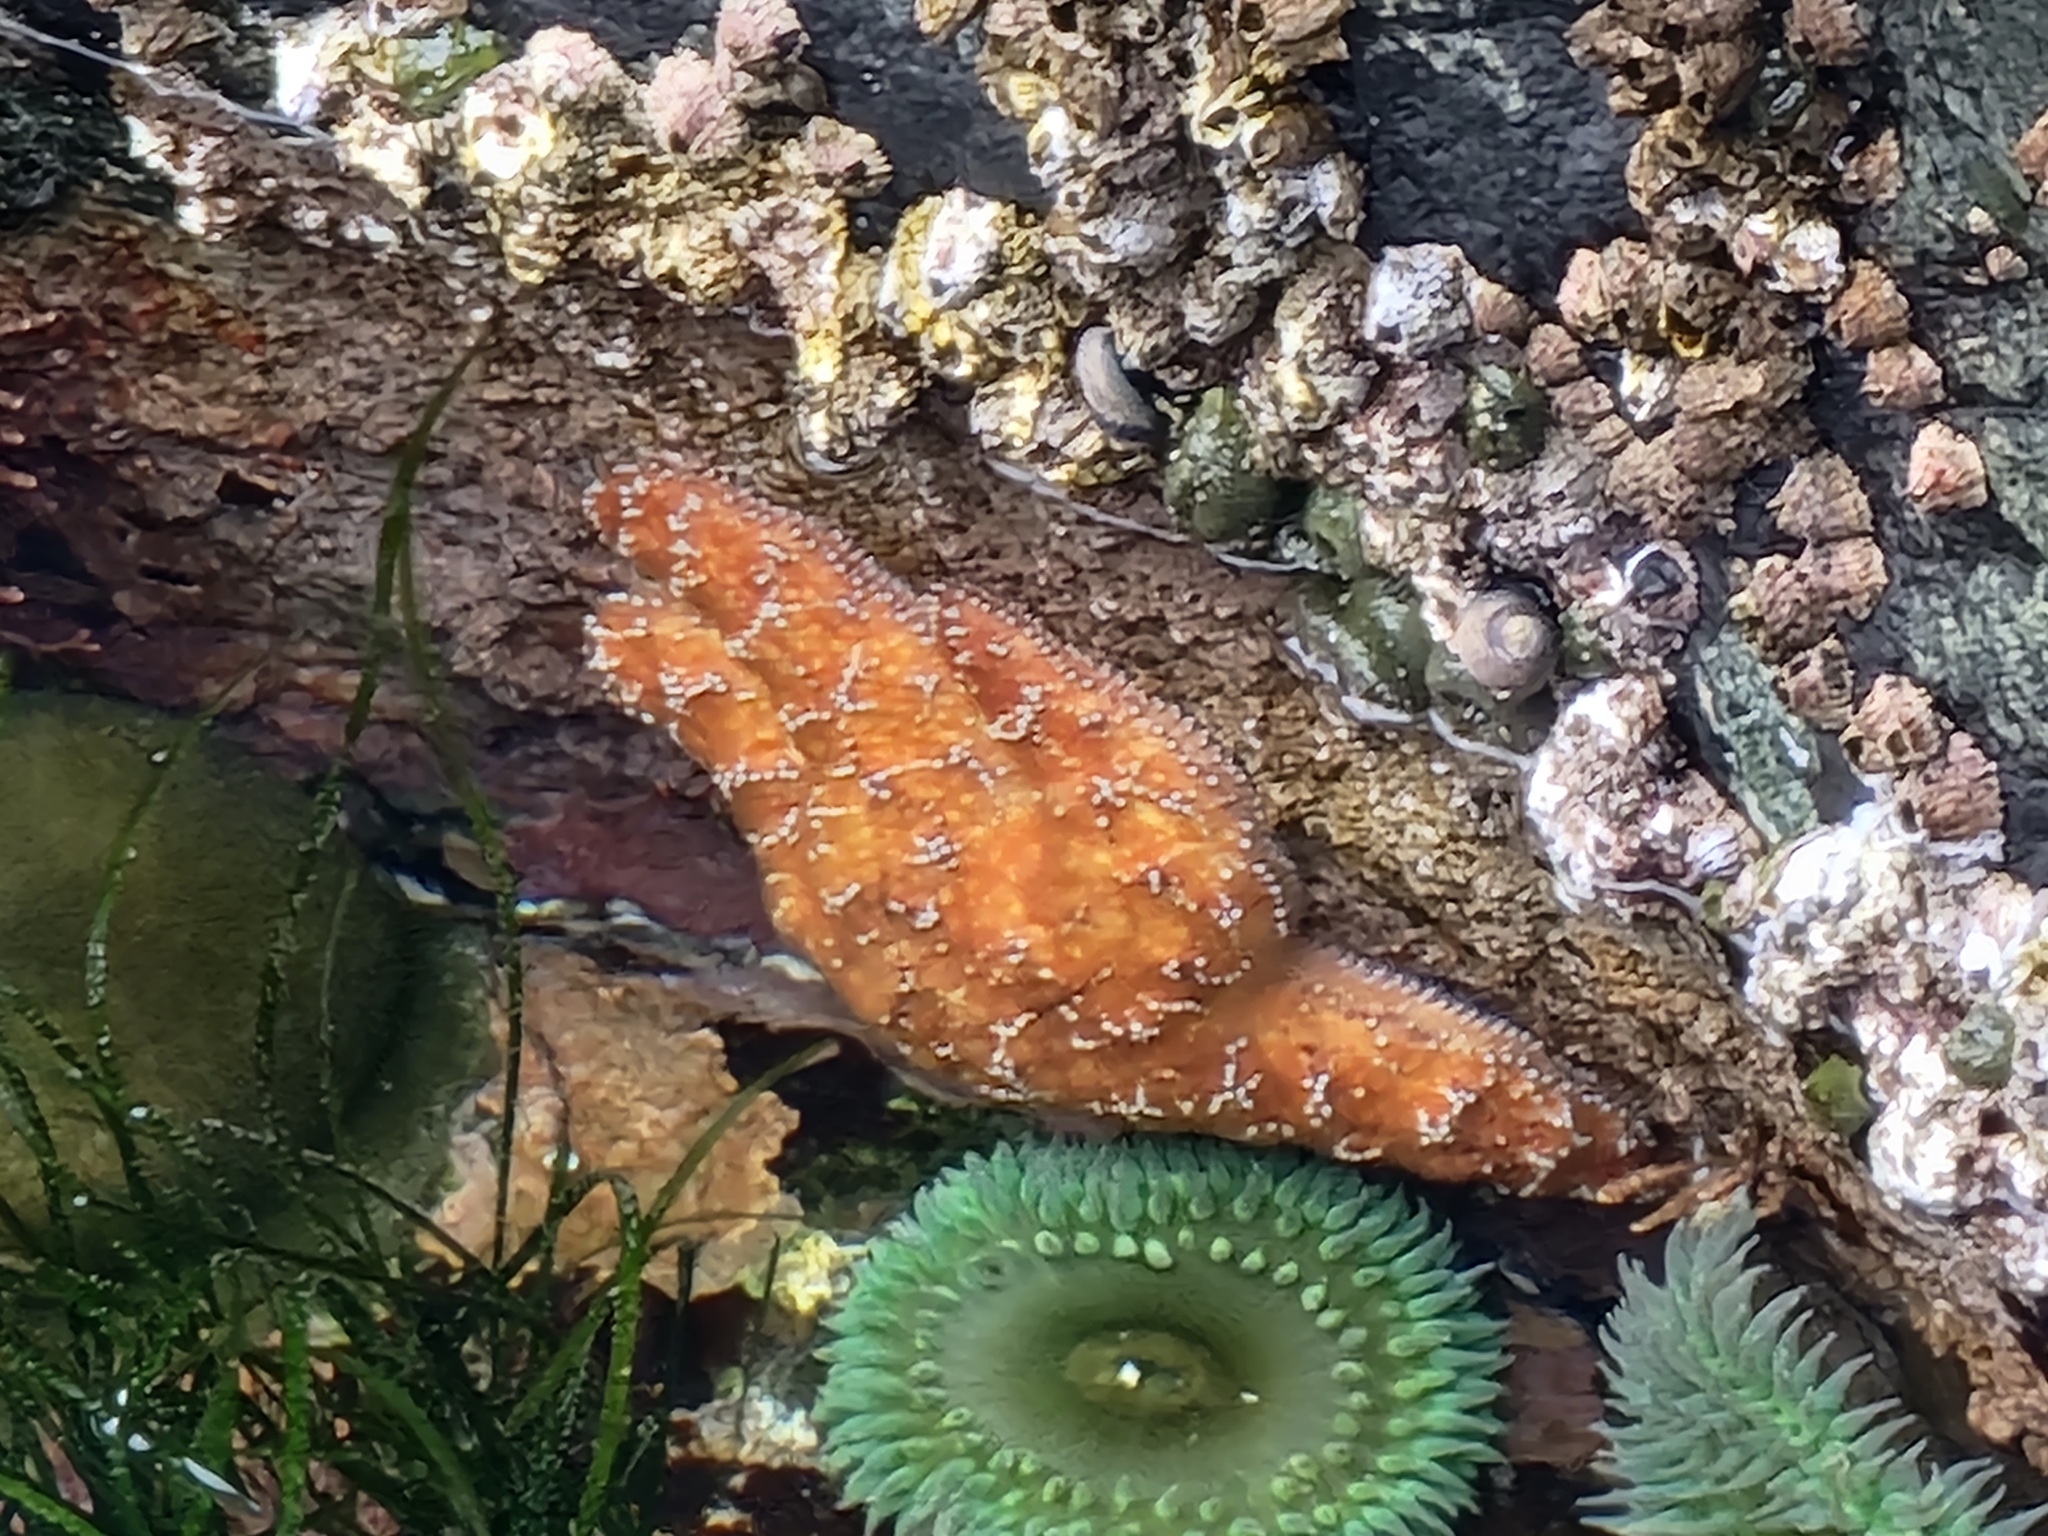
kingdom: Animalia
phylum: Echinodermata
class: Asteroidea
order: Forcipulatida
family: Asteriidae
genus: Pisaster
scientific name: Pisaster ochraceus
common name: Ochre stars
